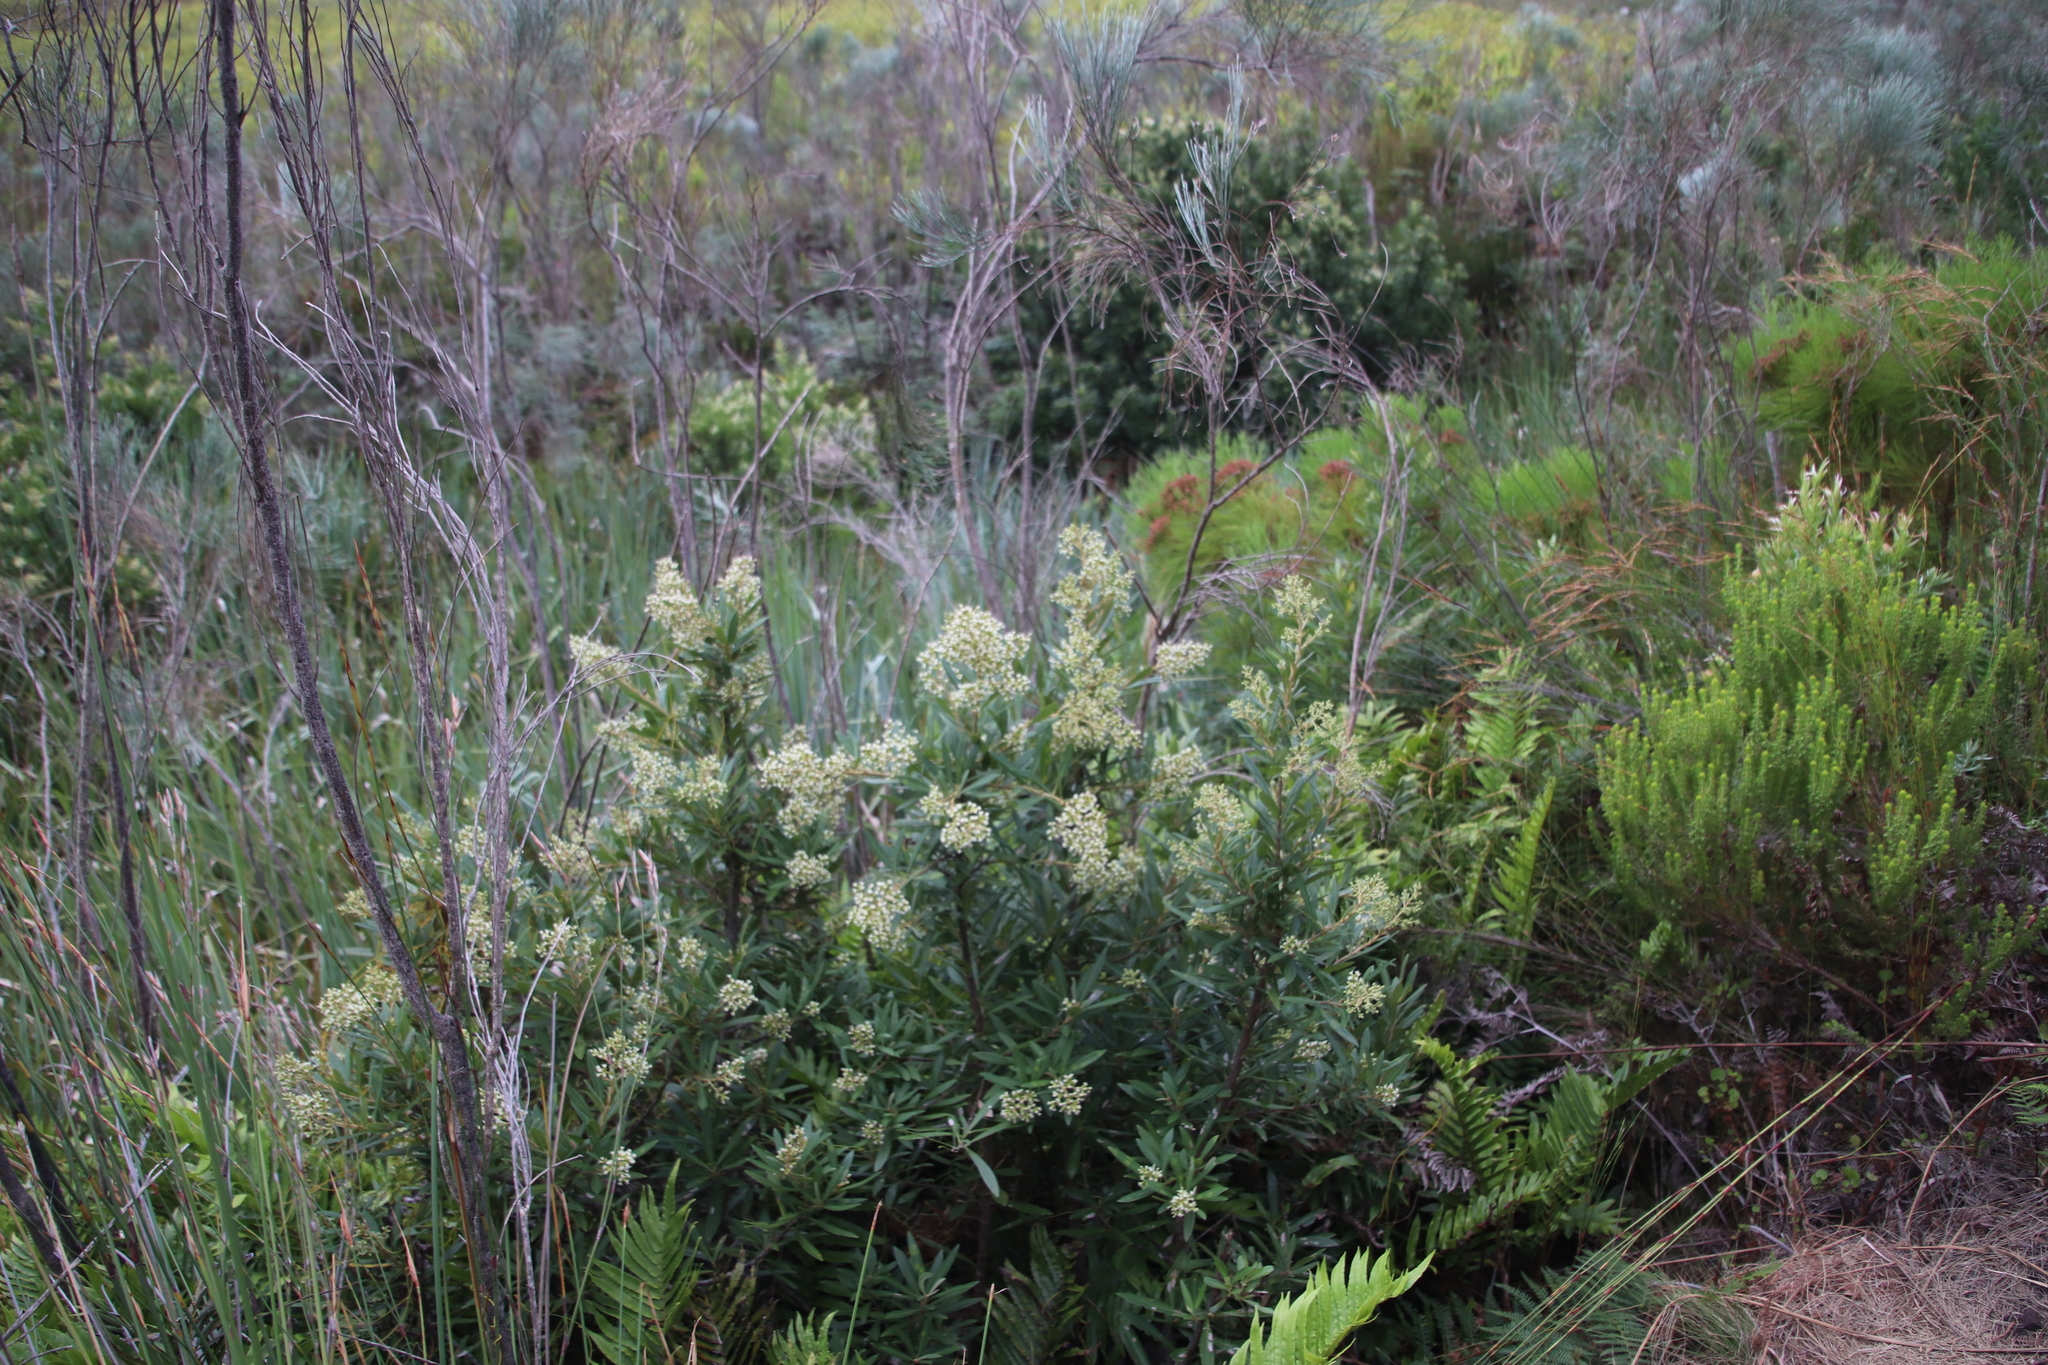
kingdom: Plantae
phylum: Tracheophyta
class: Magnoliopsida
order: Asterales
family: Asteraceae
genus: Brachylaena
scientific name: Brachylaena neriifolia
